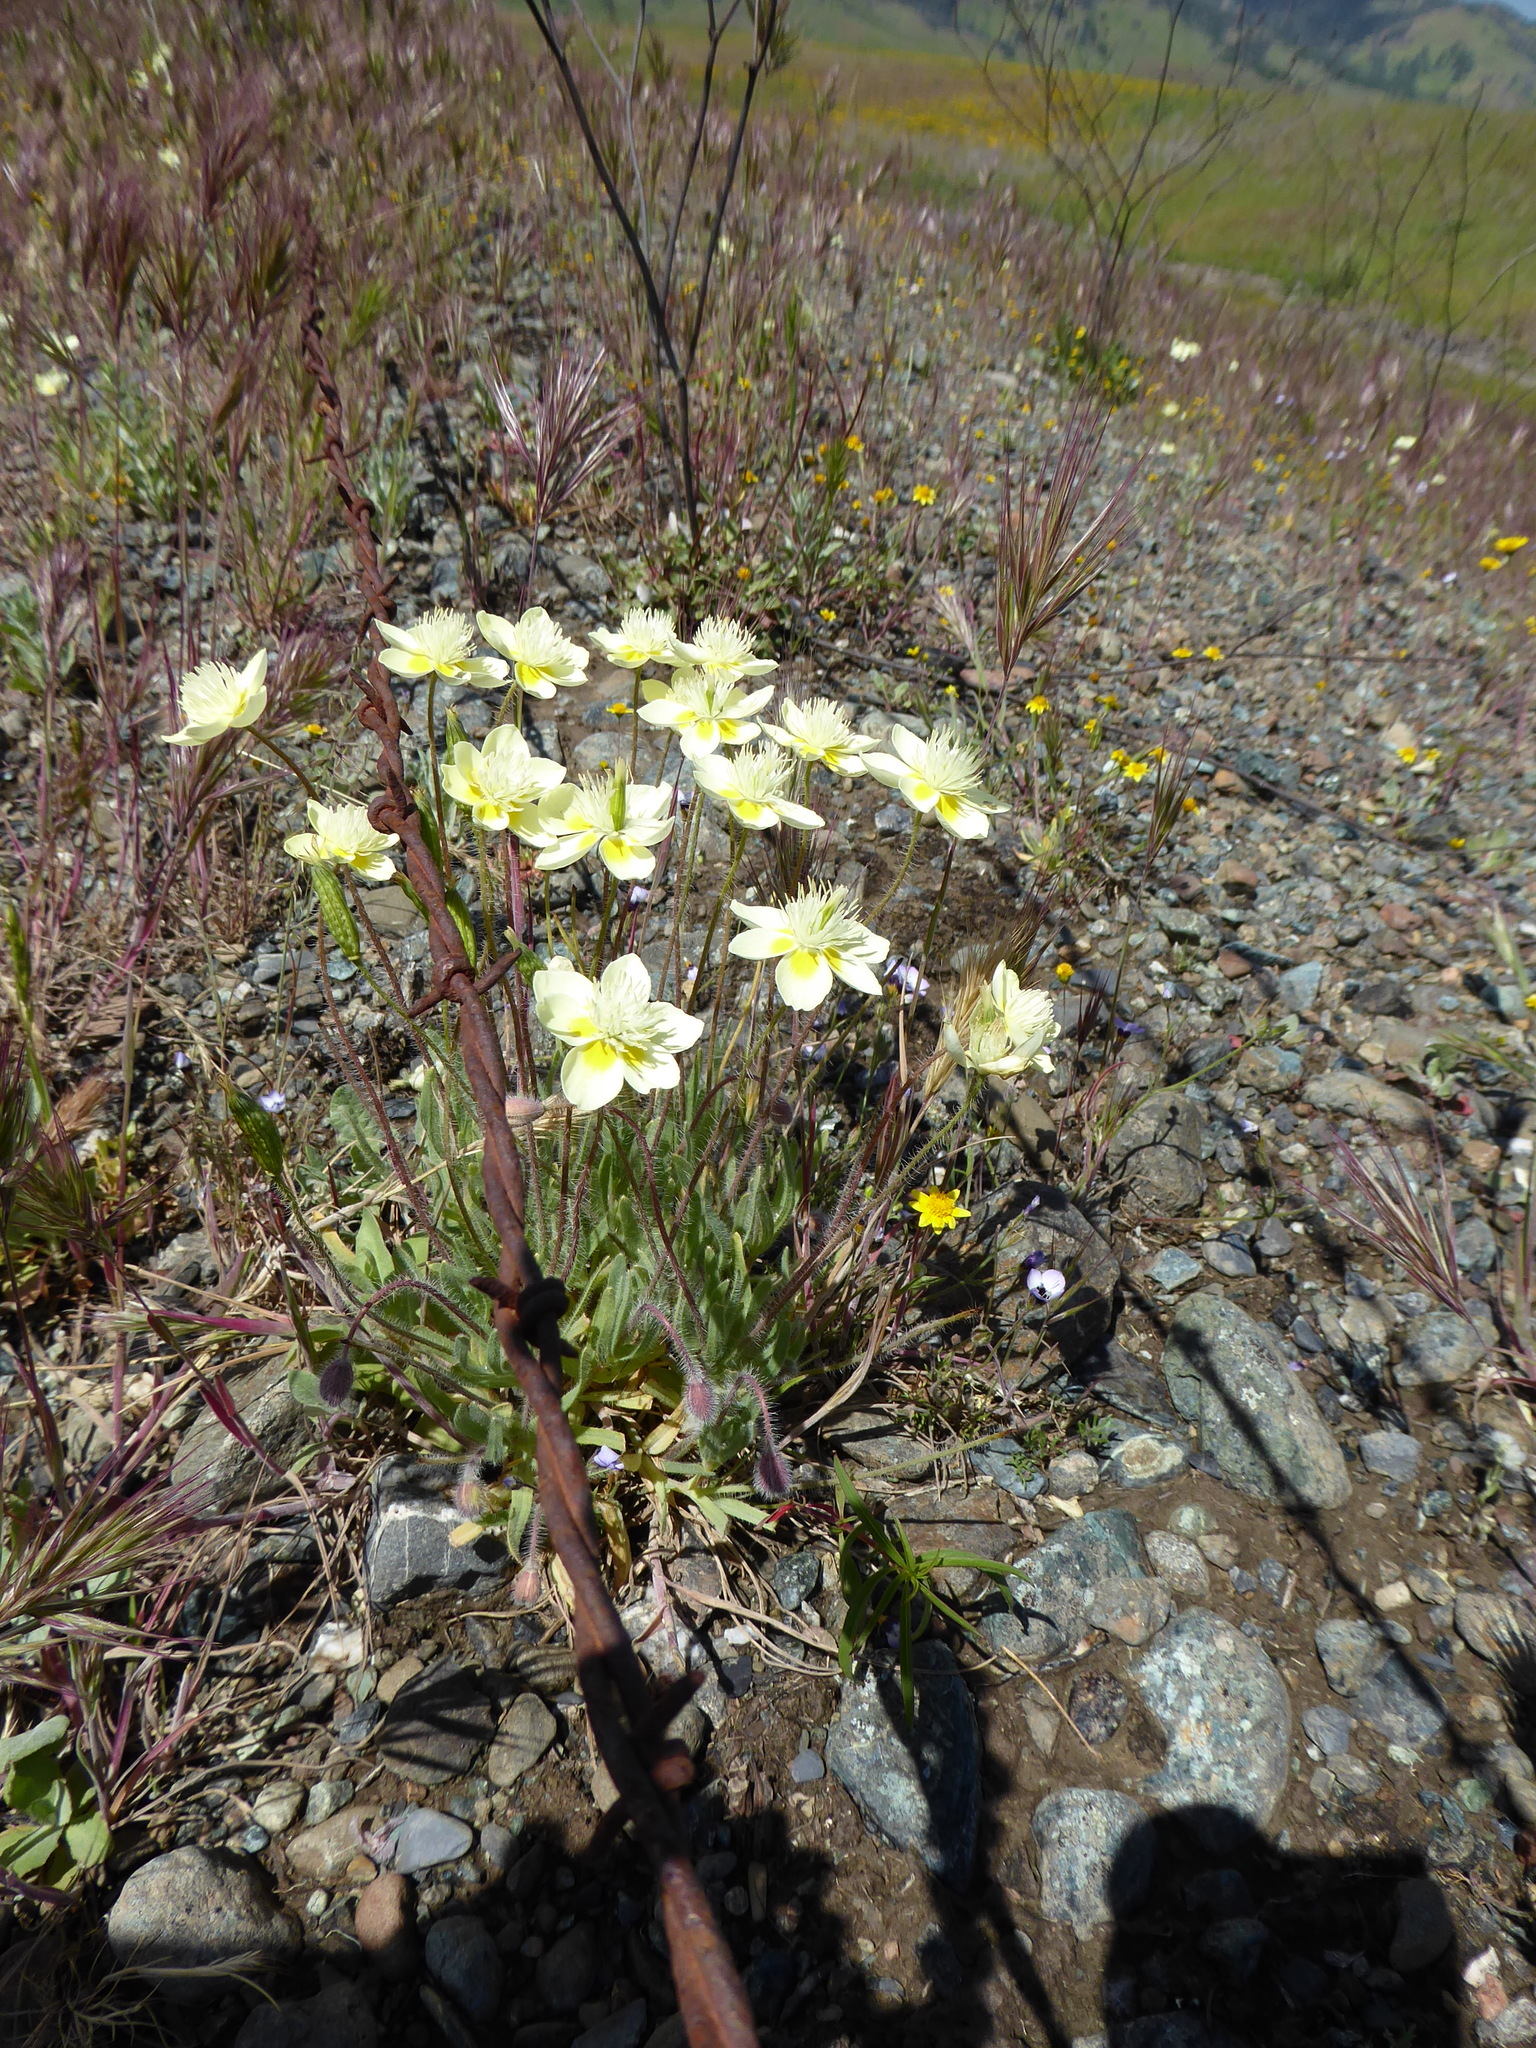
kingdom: Plantae
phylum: Tracheophyta
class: Magnoliopsida
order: Ranunculales
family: Papaveraceae
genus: Platystemon
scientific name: Platystemon californicus
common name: Cream-cups
